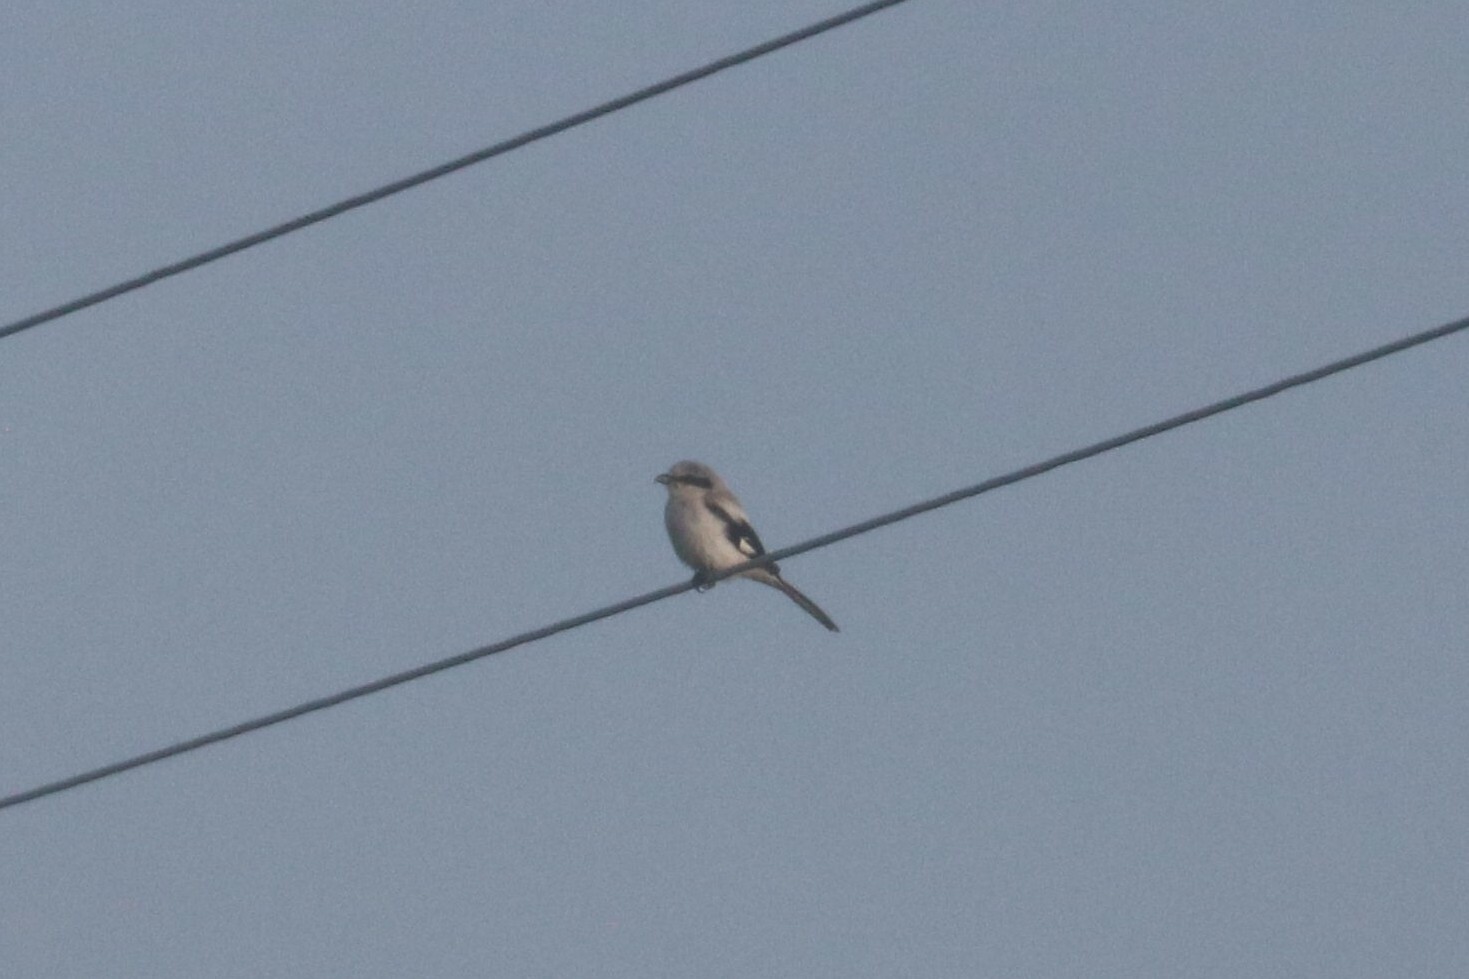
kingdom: Animalia
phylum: Chordata
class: Aves
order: Passeriformes
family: Laniidae
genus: Lanius
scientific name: Lanius excubitor
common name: Great grey shrike
